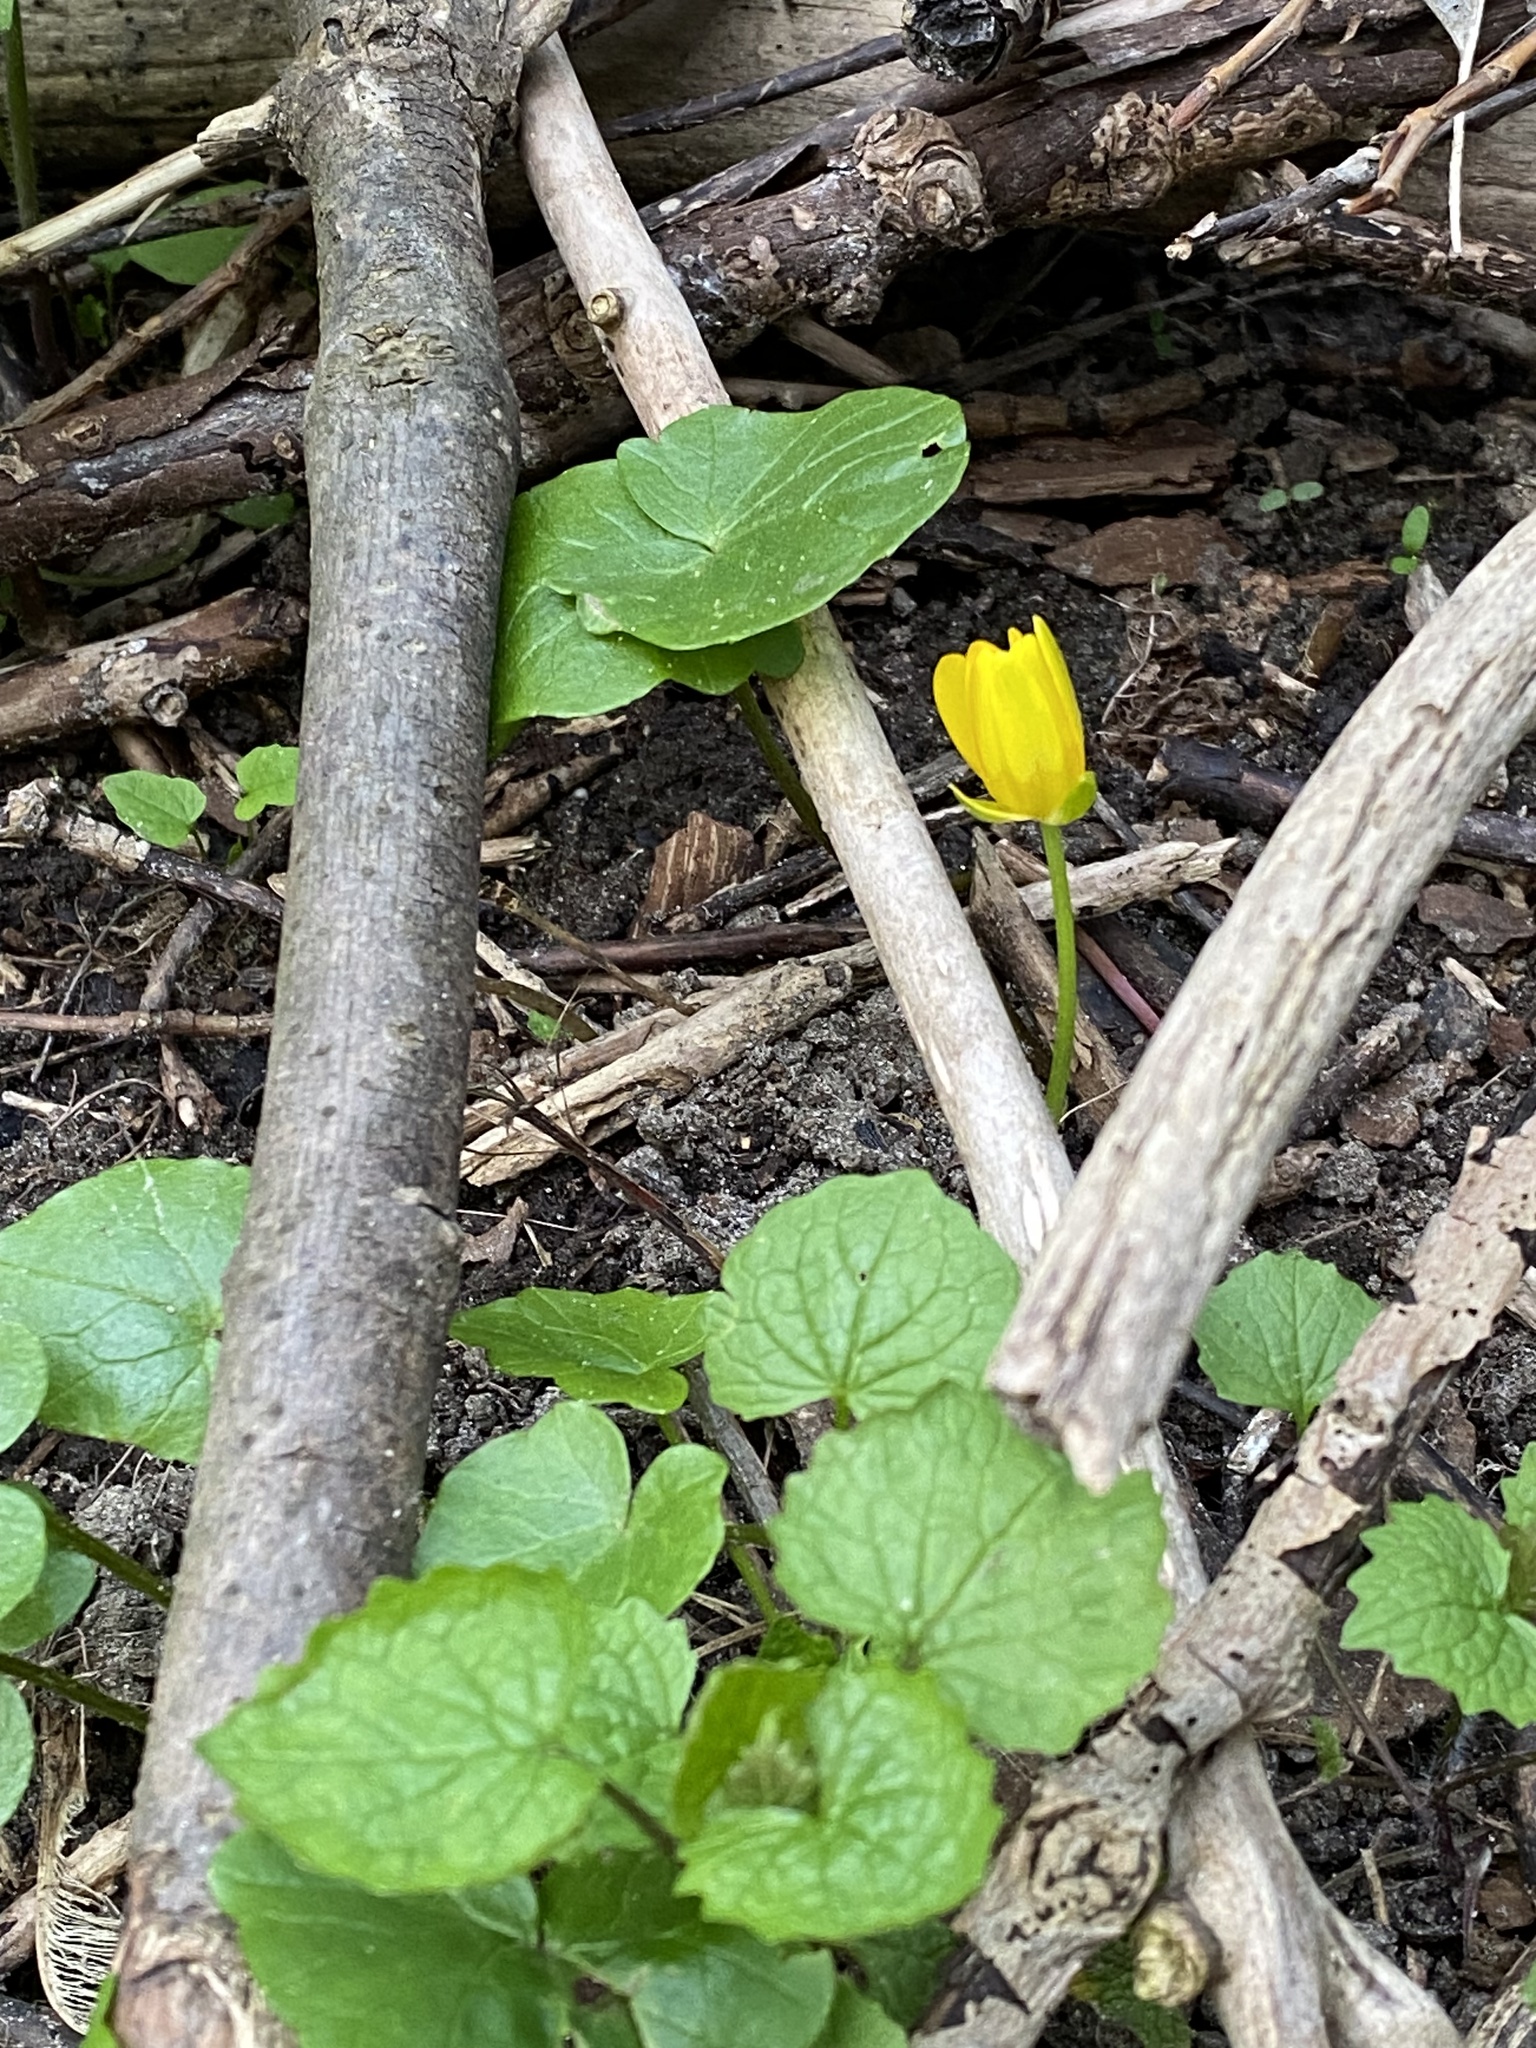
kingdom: Plantae
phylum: Tracheophyta
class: Magnoliopsida
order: Ranunculales
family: Ranunculaceae
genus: Ficaria
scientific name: Ficaria verna
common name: Lesser celandine
